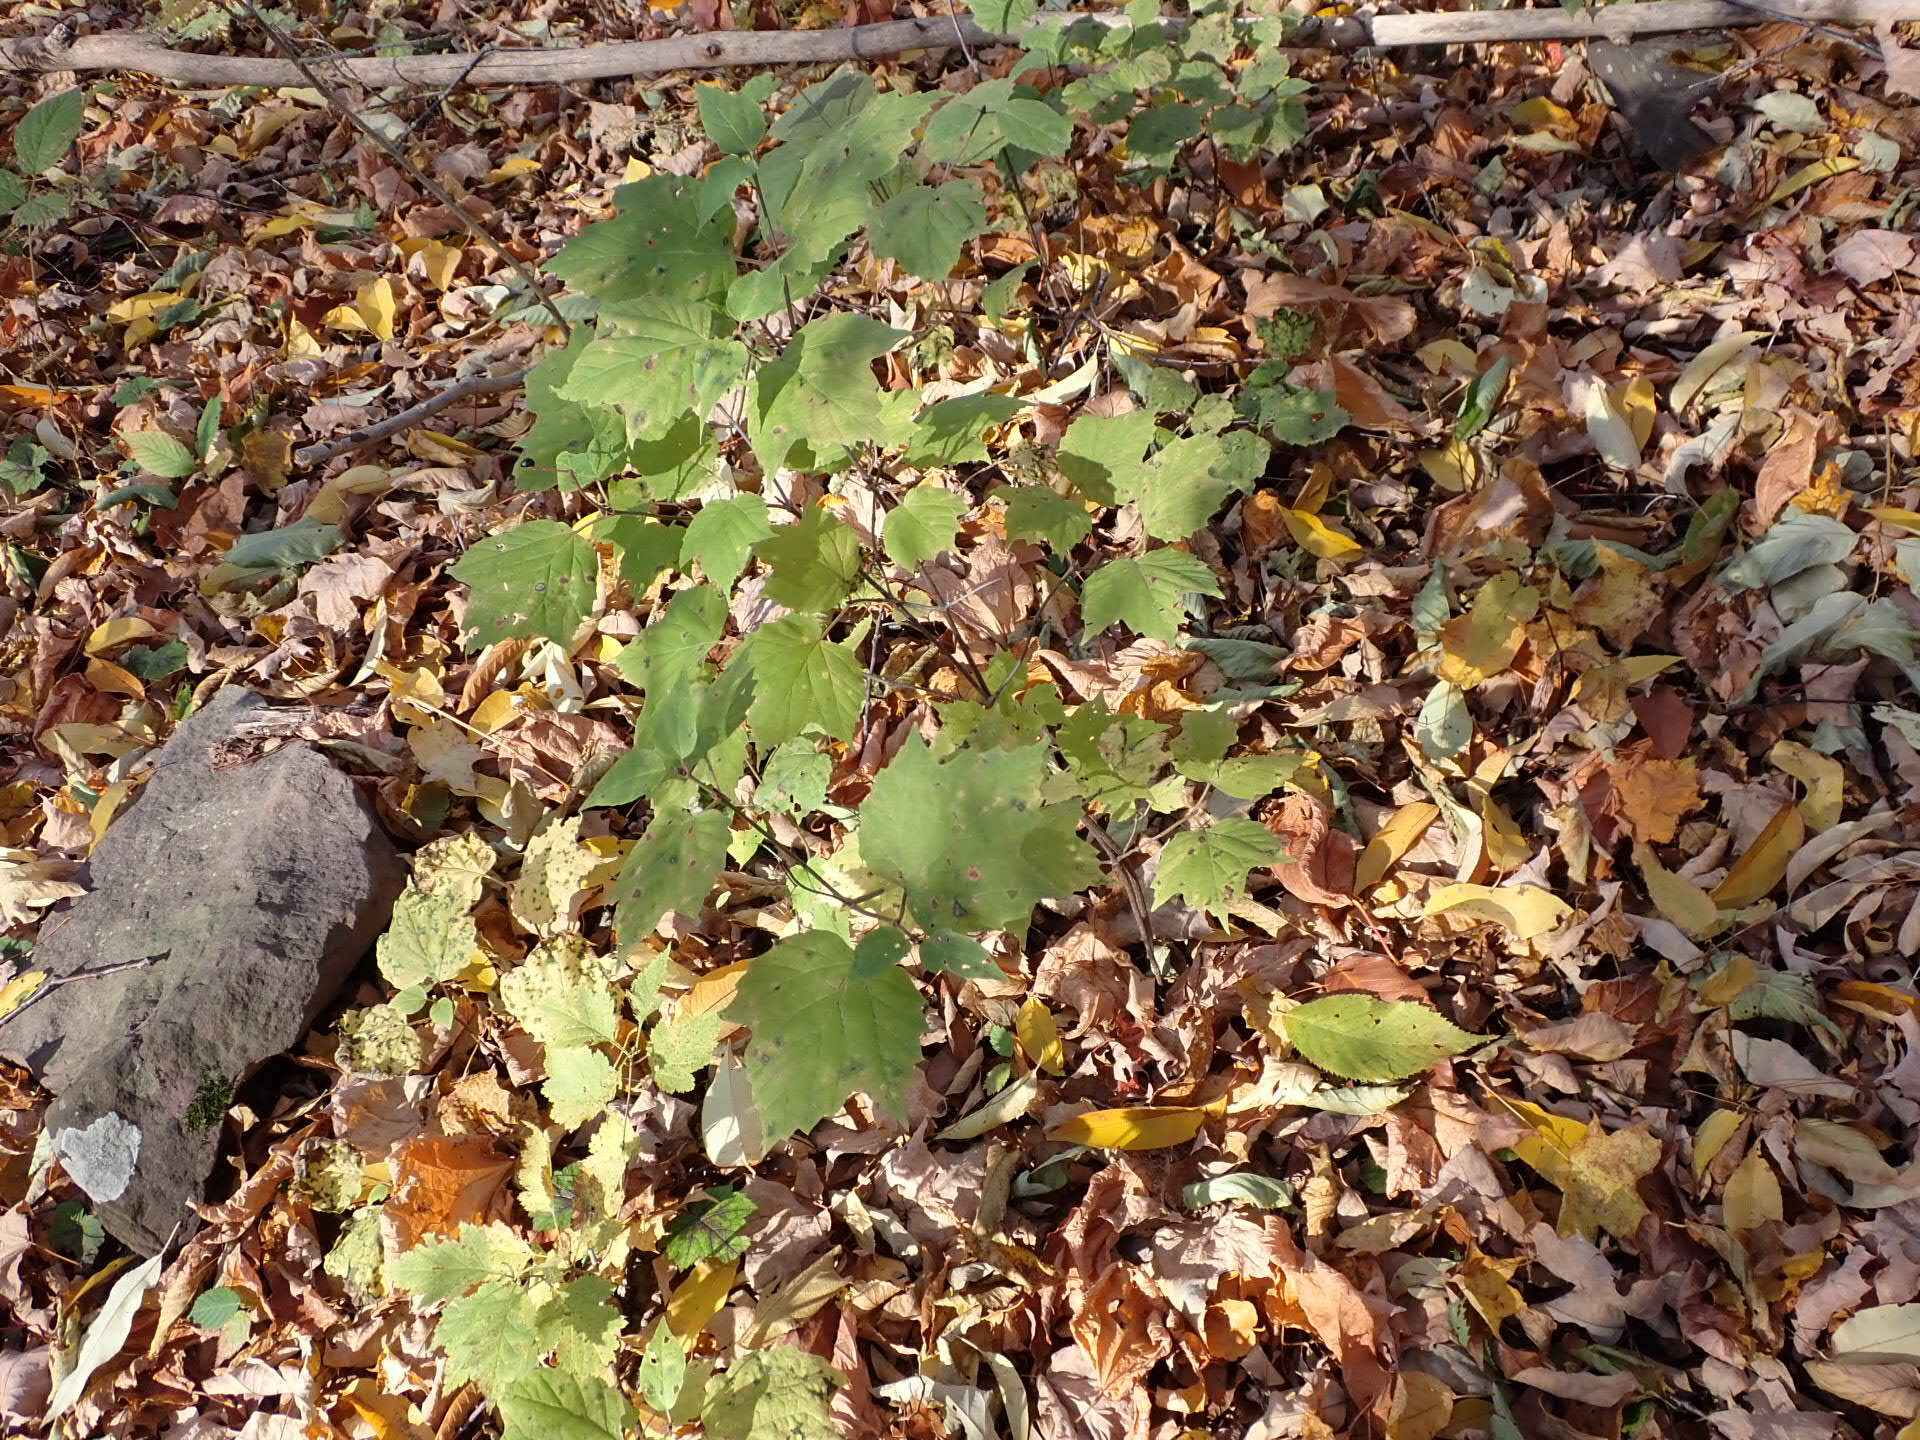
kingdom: Plantae
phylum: Tracheophyta
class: Magnoliopsida
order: Dipsacales
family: Viburnaceae
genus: Viburnum
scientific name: Viburnum acerifolium
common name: Dockmackie
